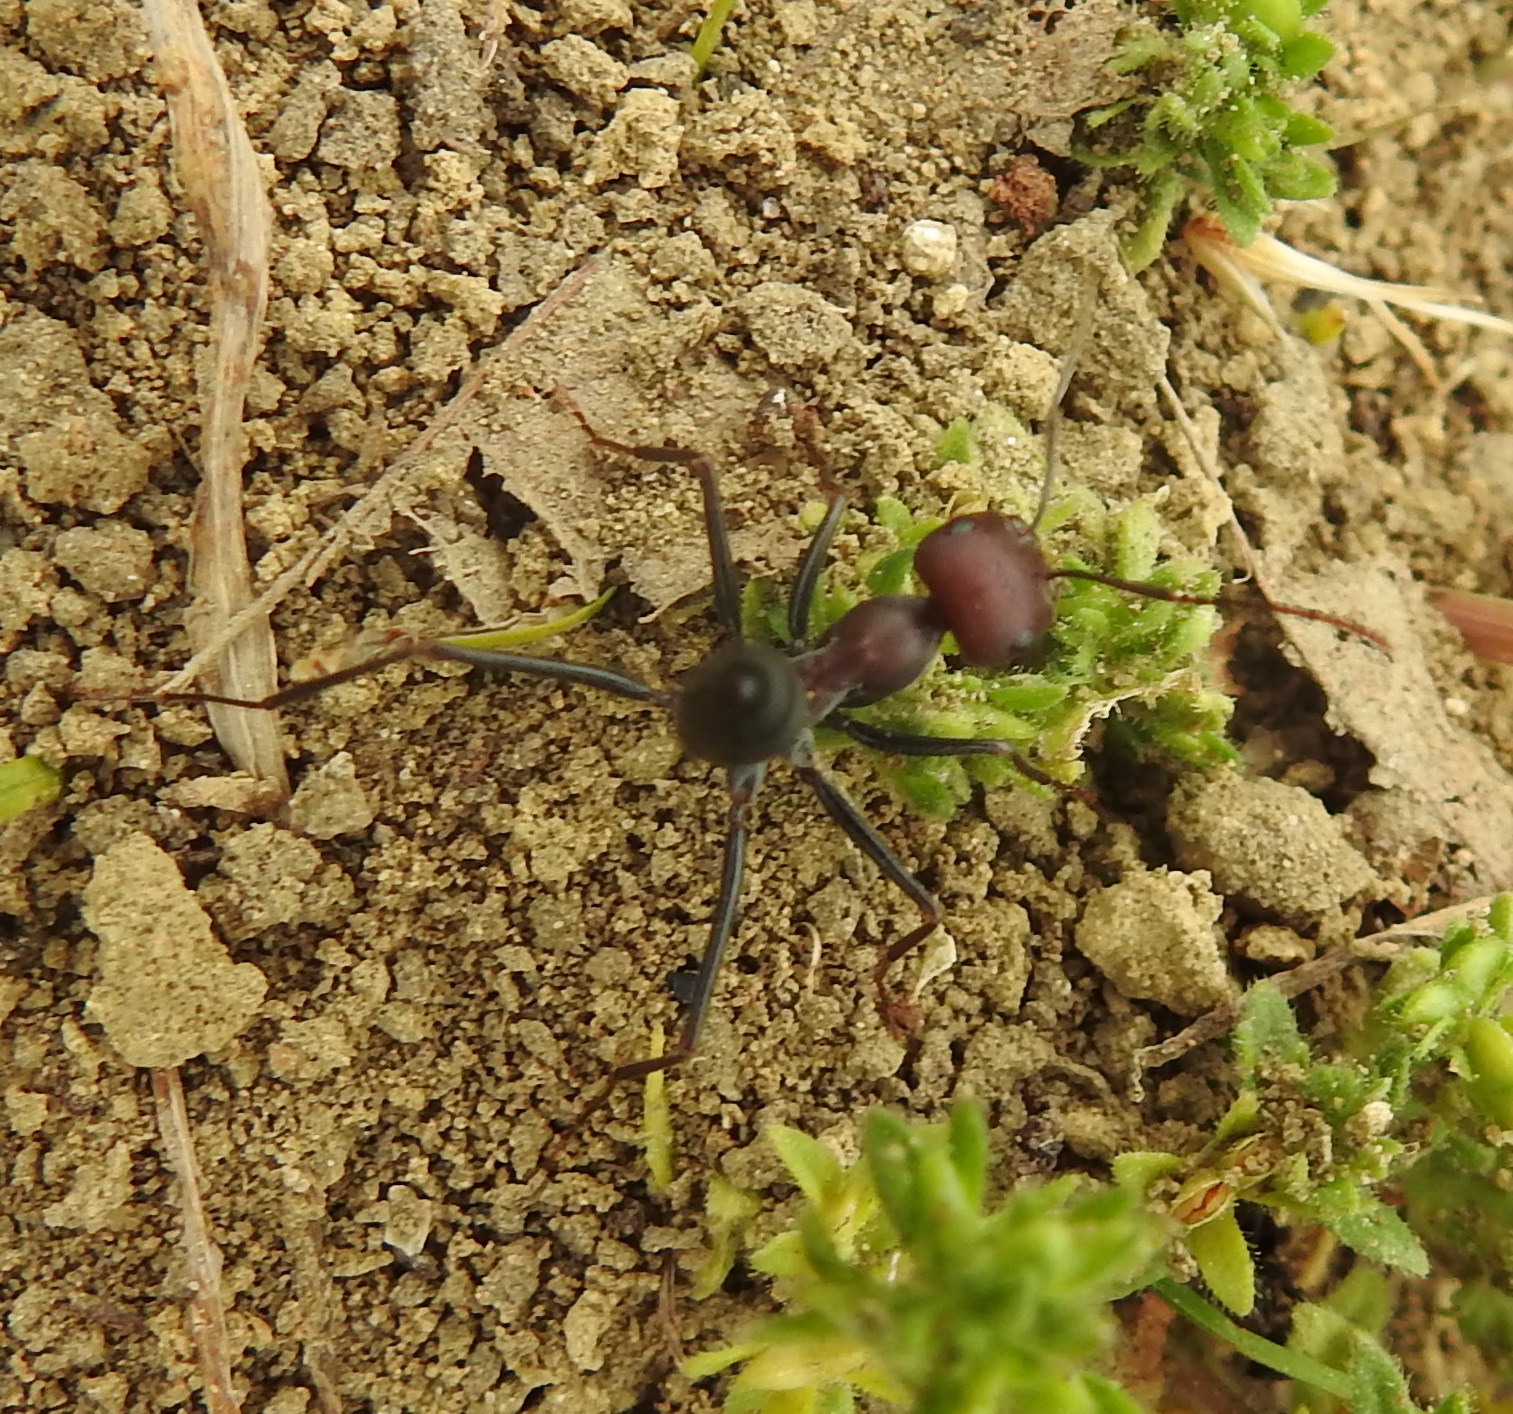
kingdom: Animalia
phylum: Arthropoda
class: Insecta
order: Hymenoptera
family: Formicidae
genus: Cataglyphis
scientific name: Cataglyphis nodus
